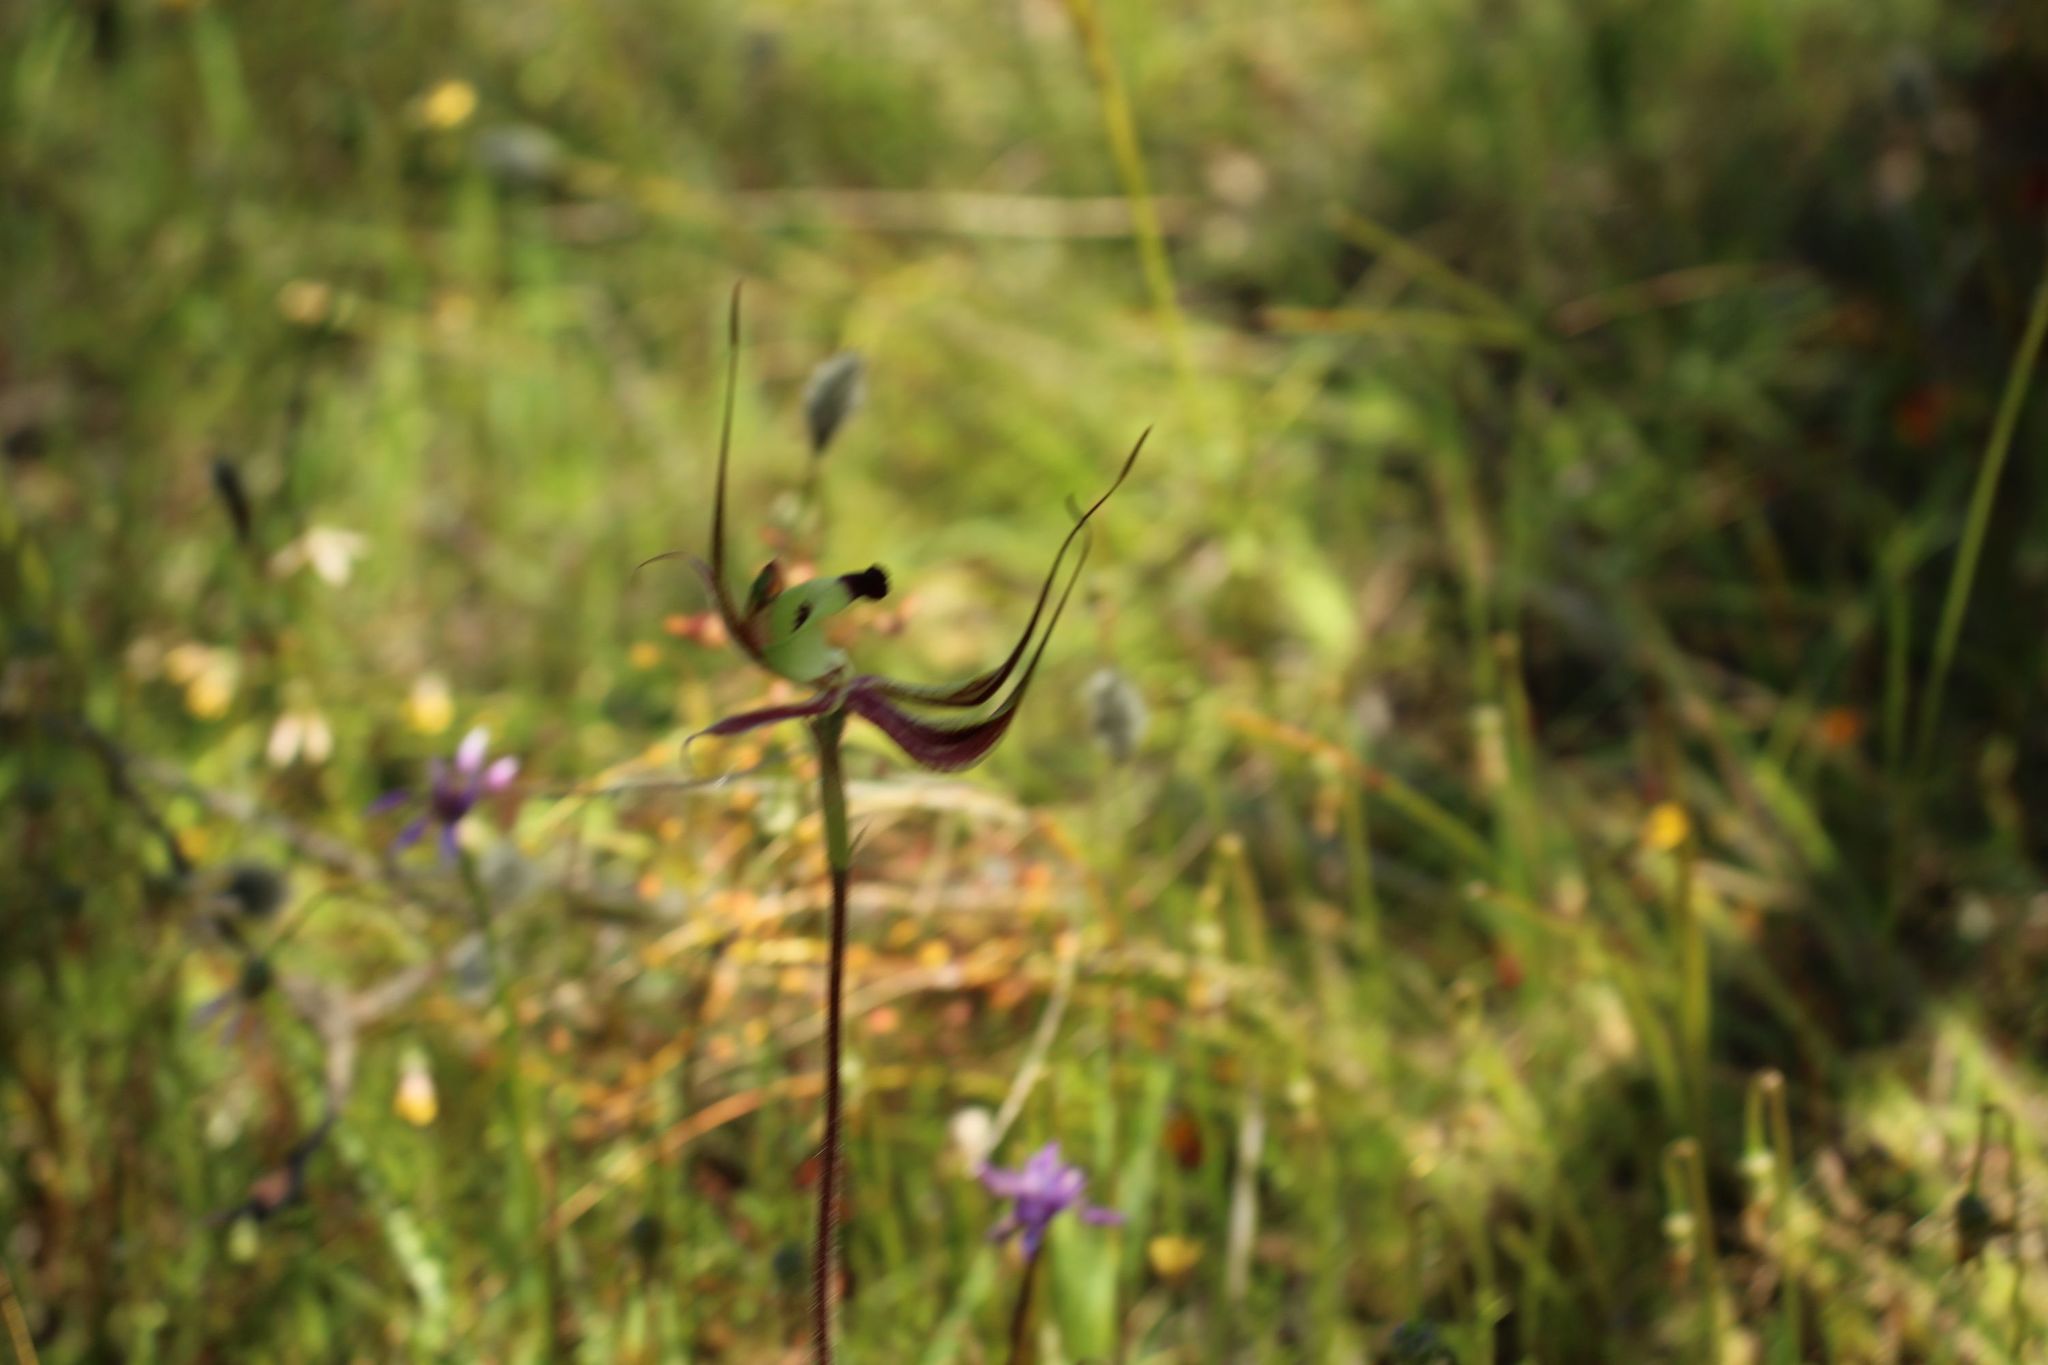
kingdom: Plantae
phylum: Tracheophyta
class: Liliopsida
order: Asparagales
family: Orchidaceae
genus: Caladenia
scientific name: Caladenia integra
